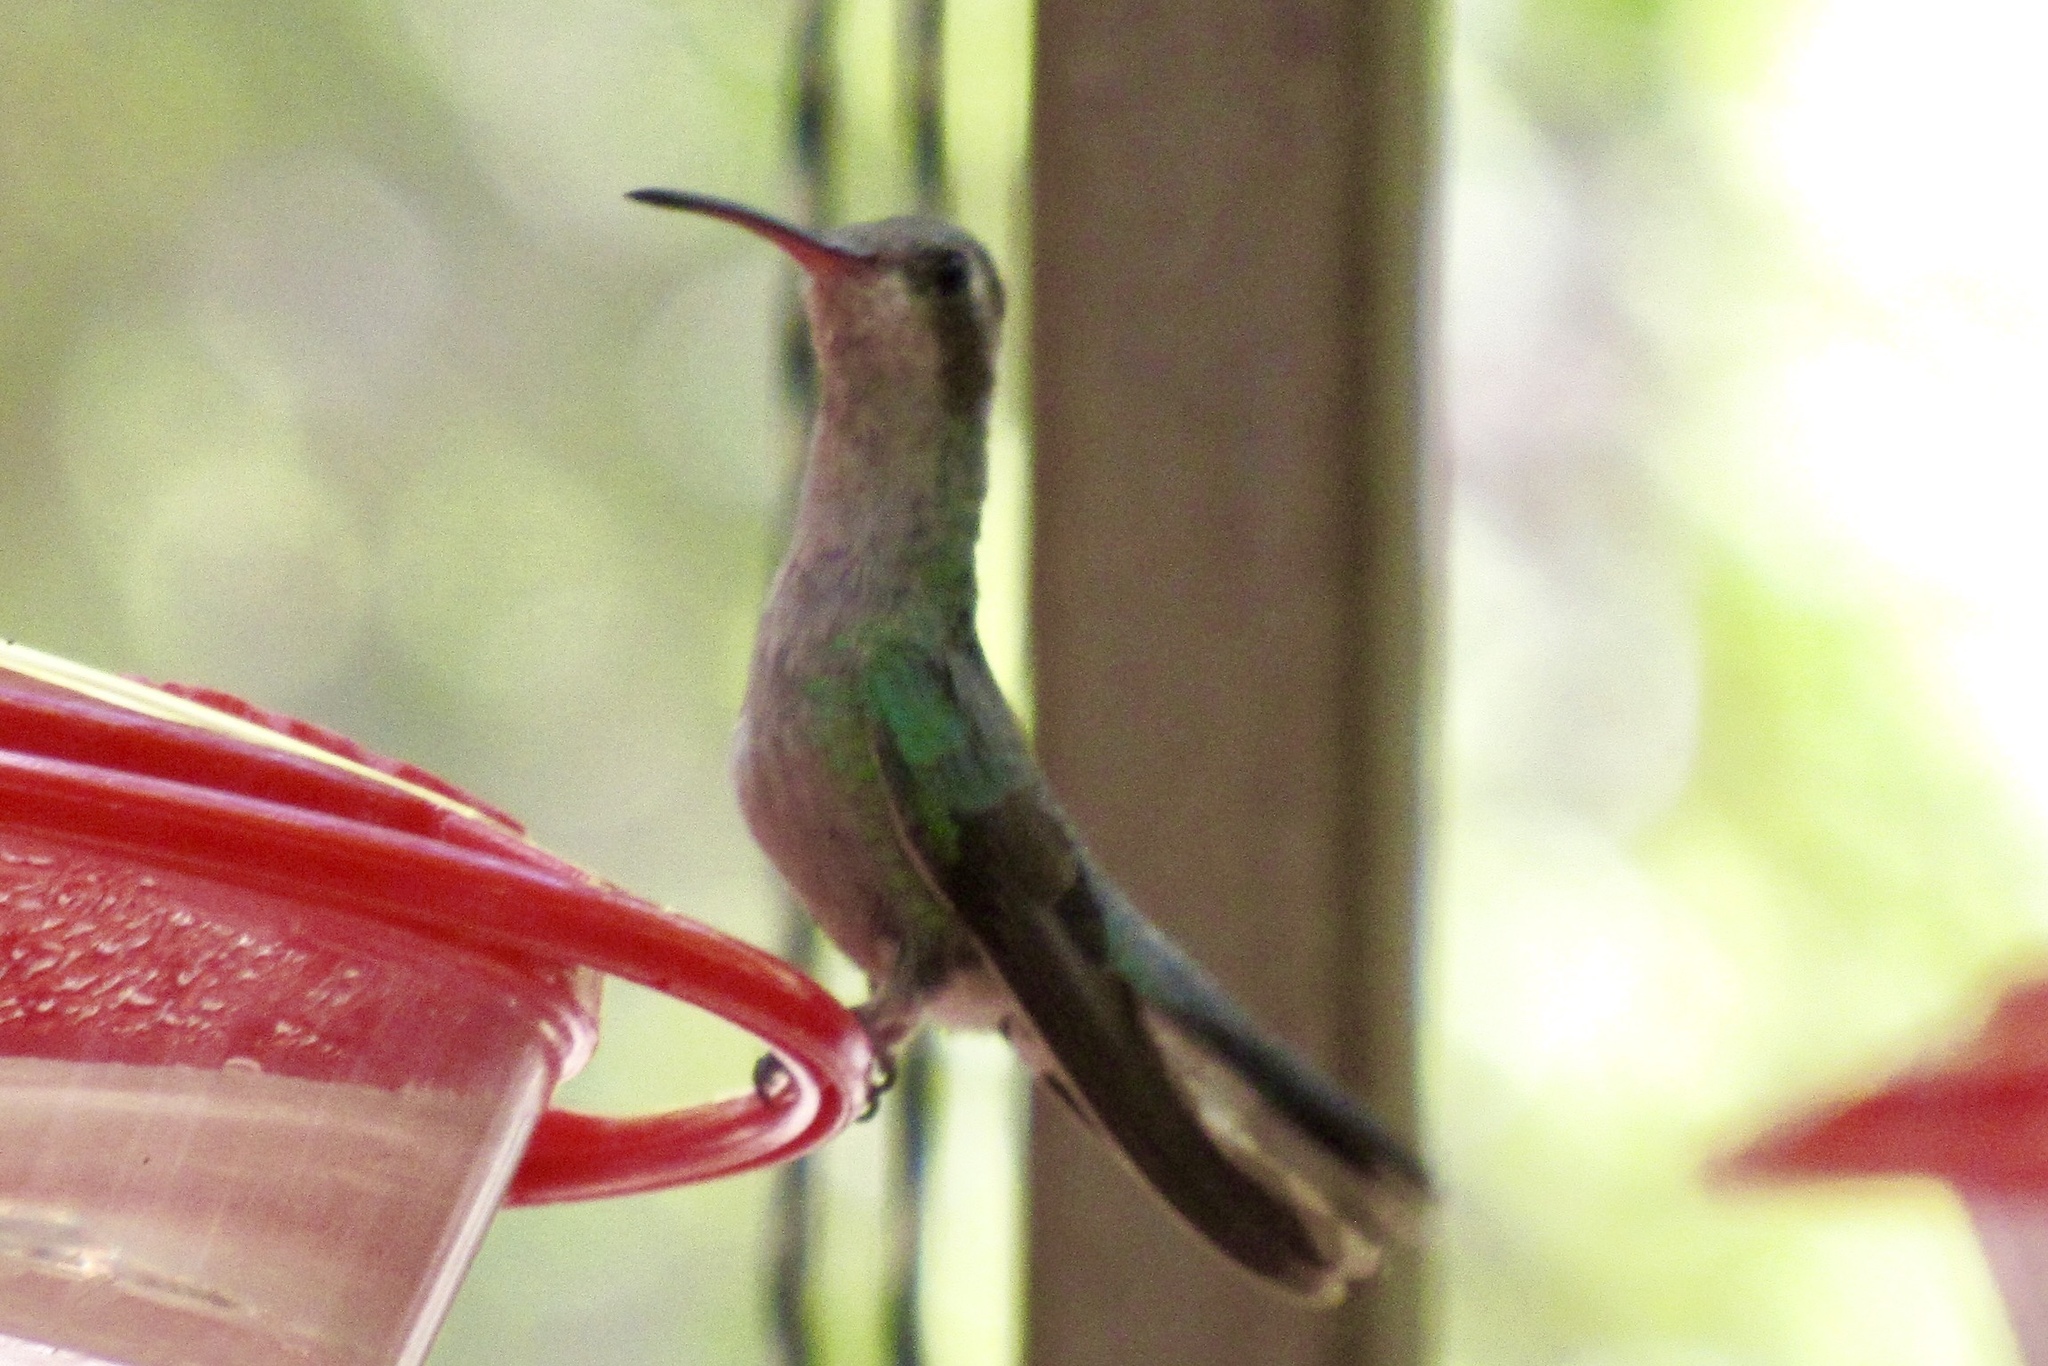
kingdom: Animalia
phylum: Chordata
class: Aves
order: Apodiformes
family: Trochilidae
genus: Cynanthus
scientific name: Cynanthus latirostris
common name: Broad-billed hummingbird
